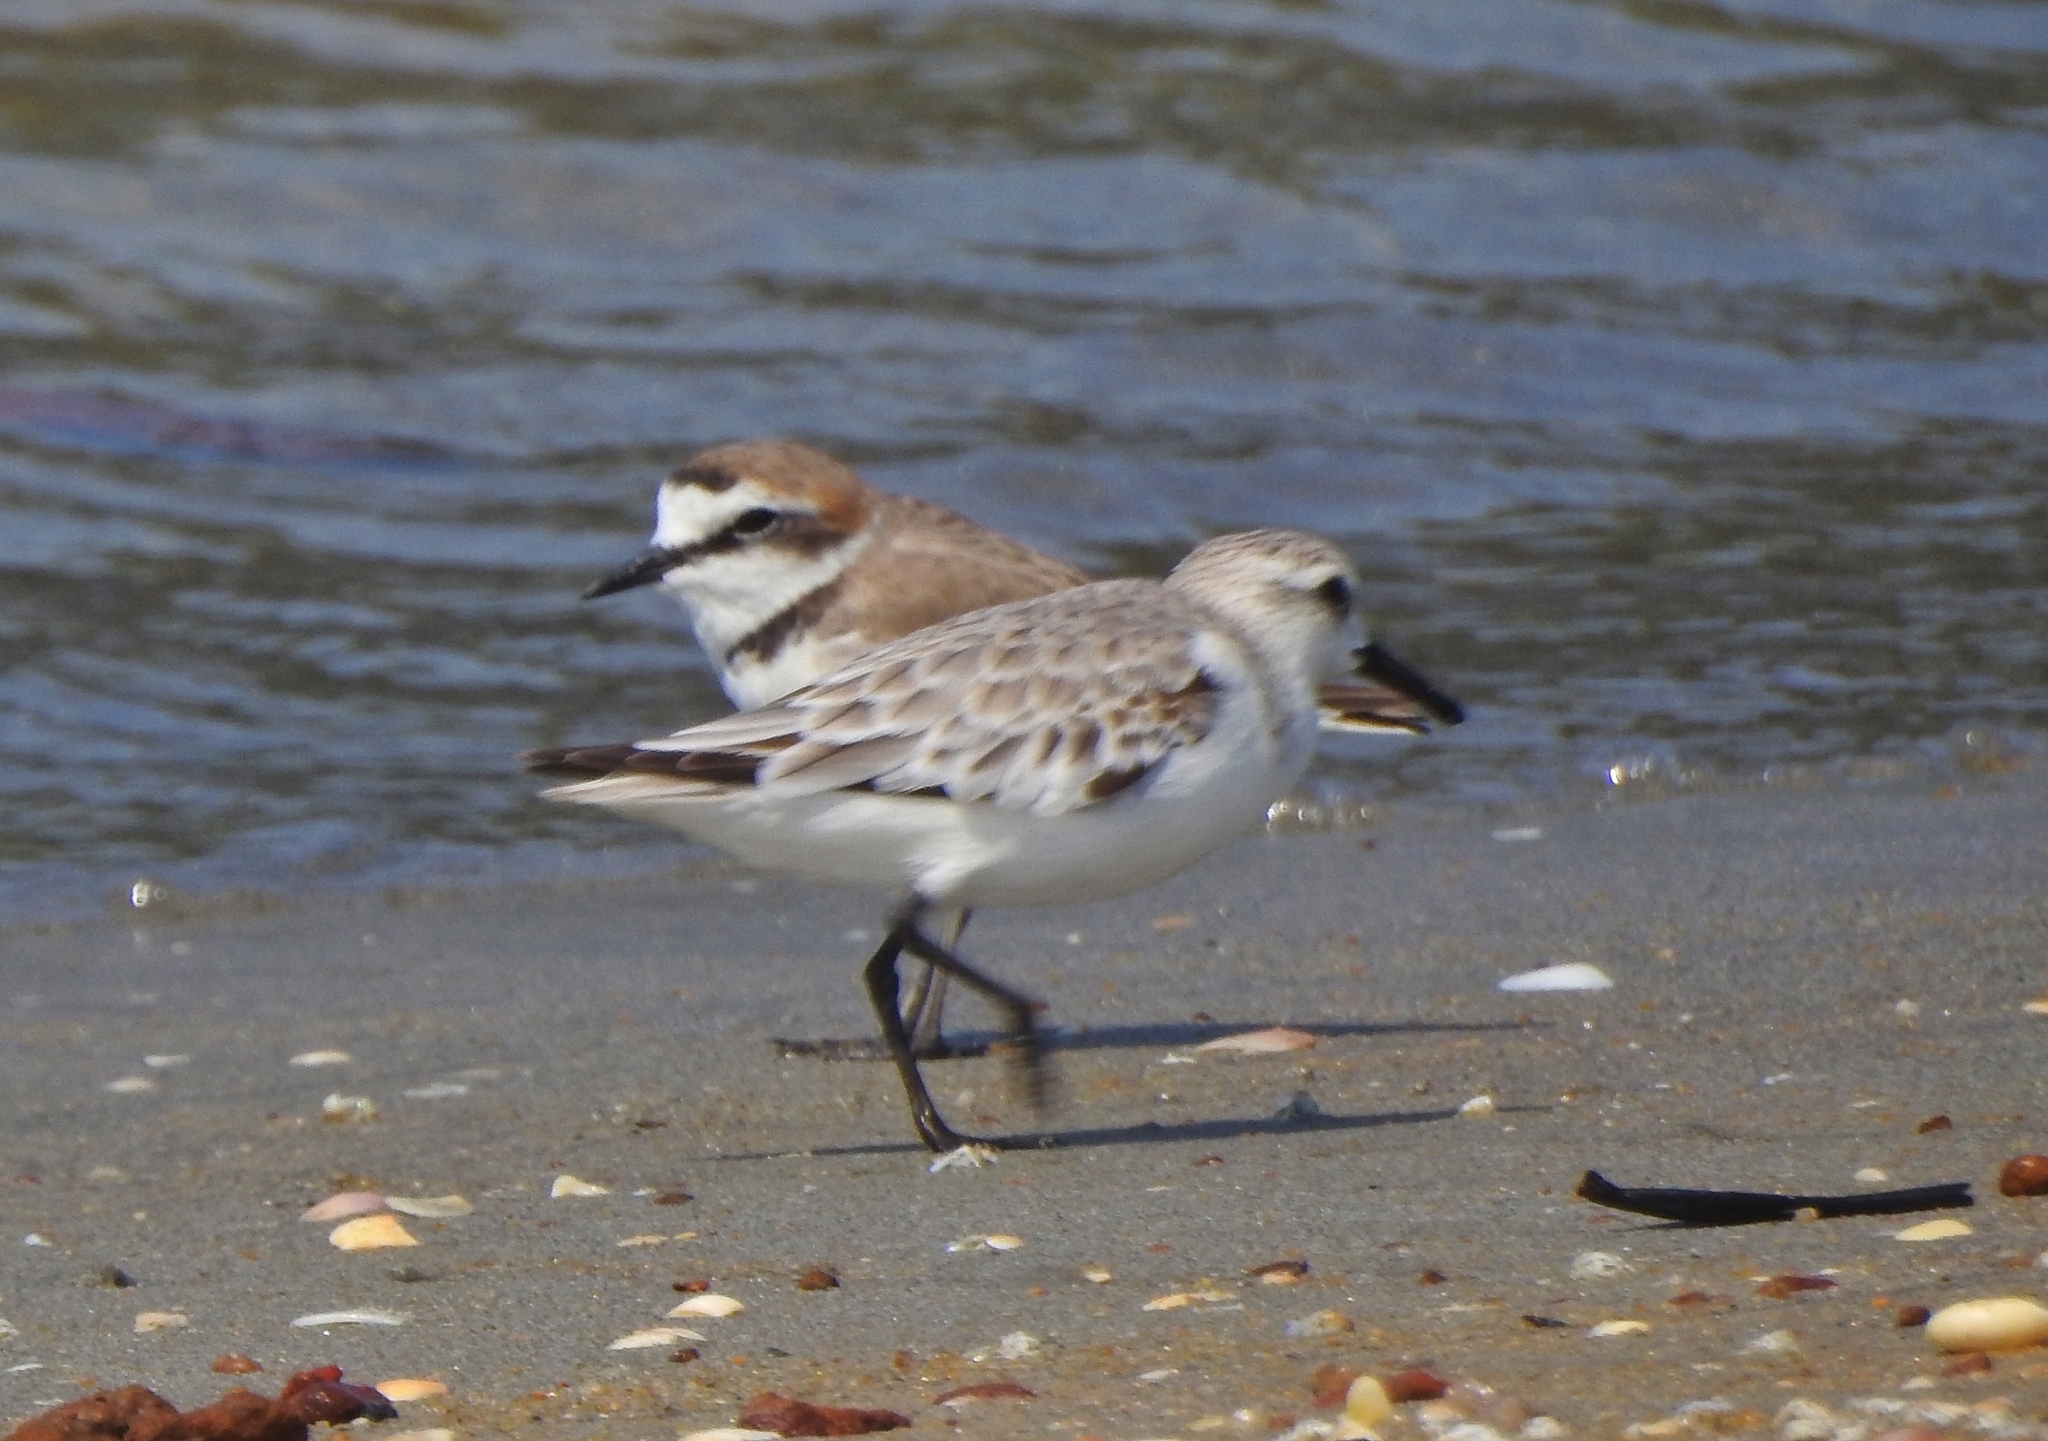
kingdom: Animalia
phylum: Chordata
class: Aves
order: Charadriiformes
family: Charadriidae
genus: Charadrius
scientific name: Charadrius alexandrinus
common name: Kentish plover
